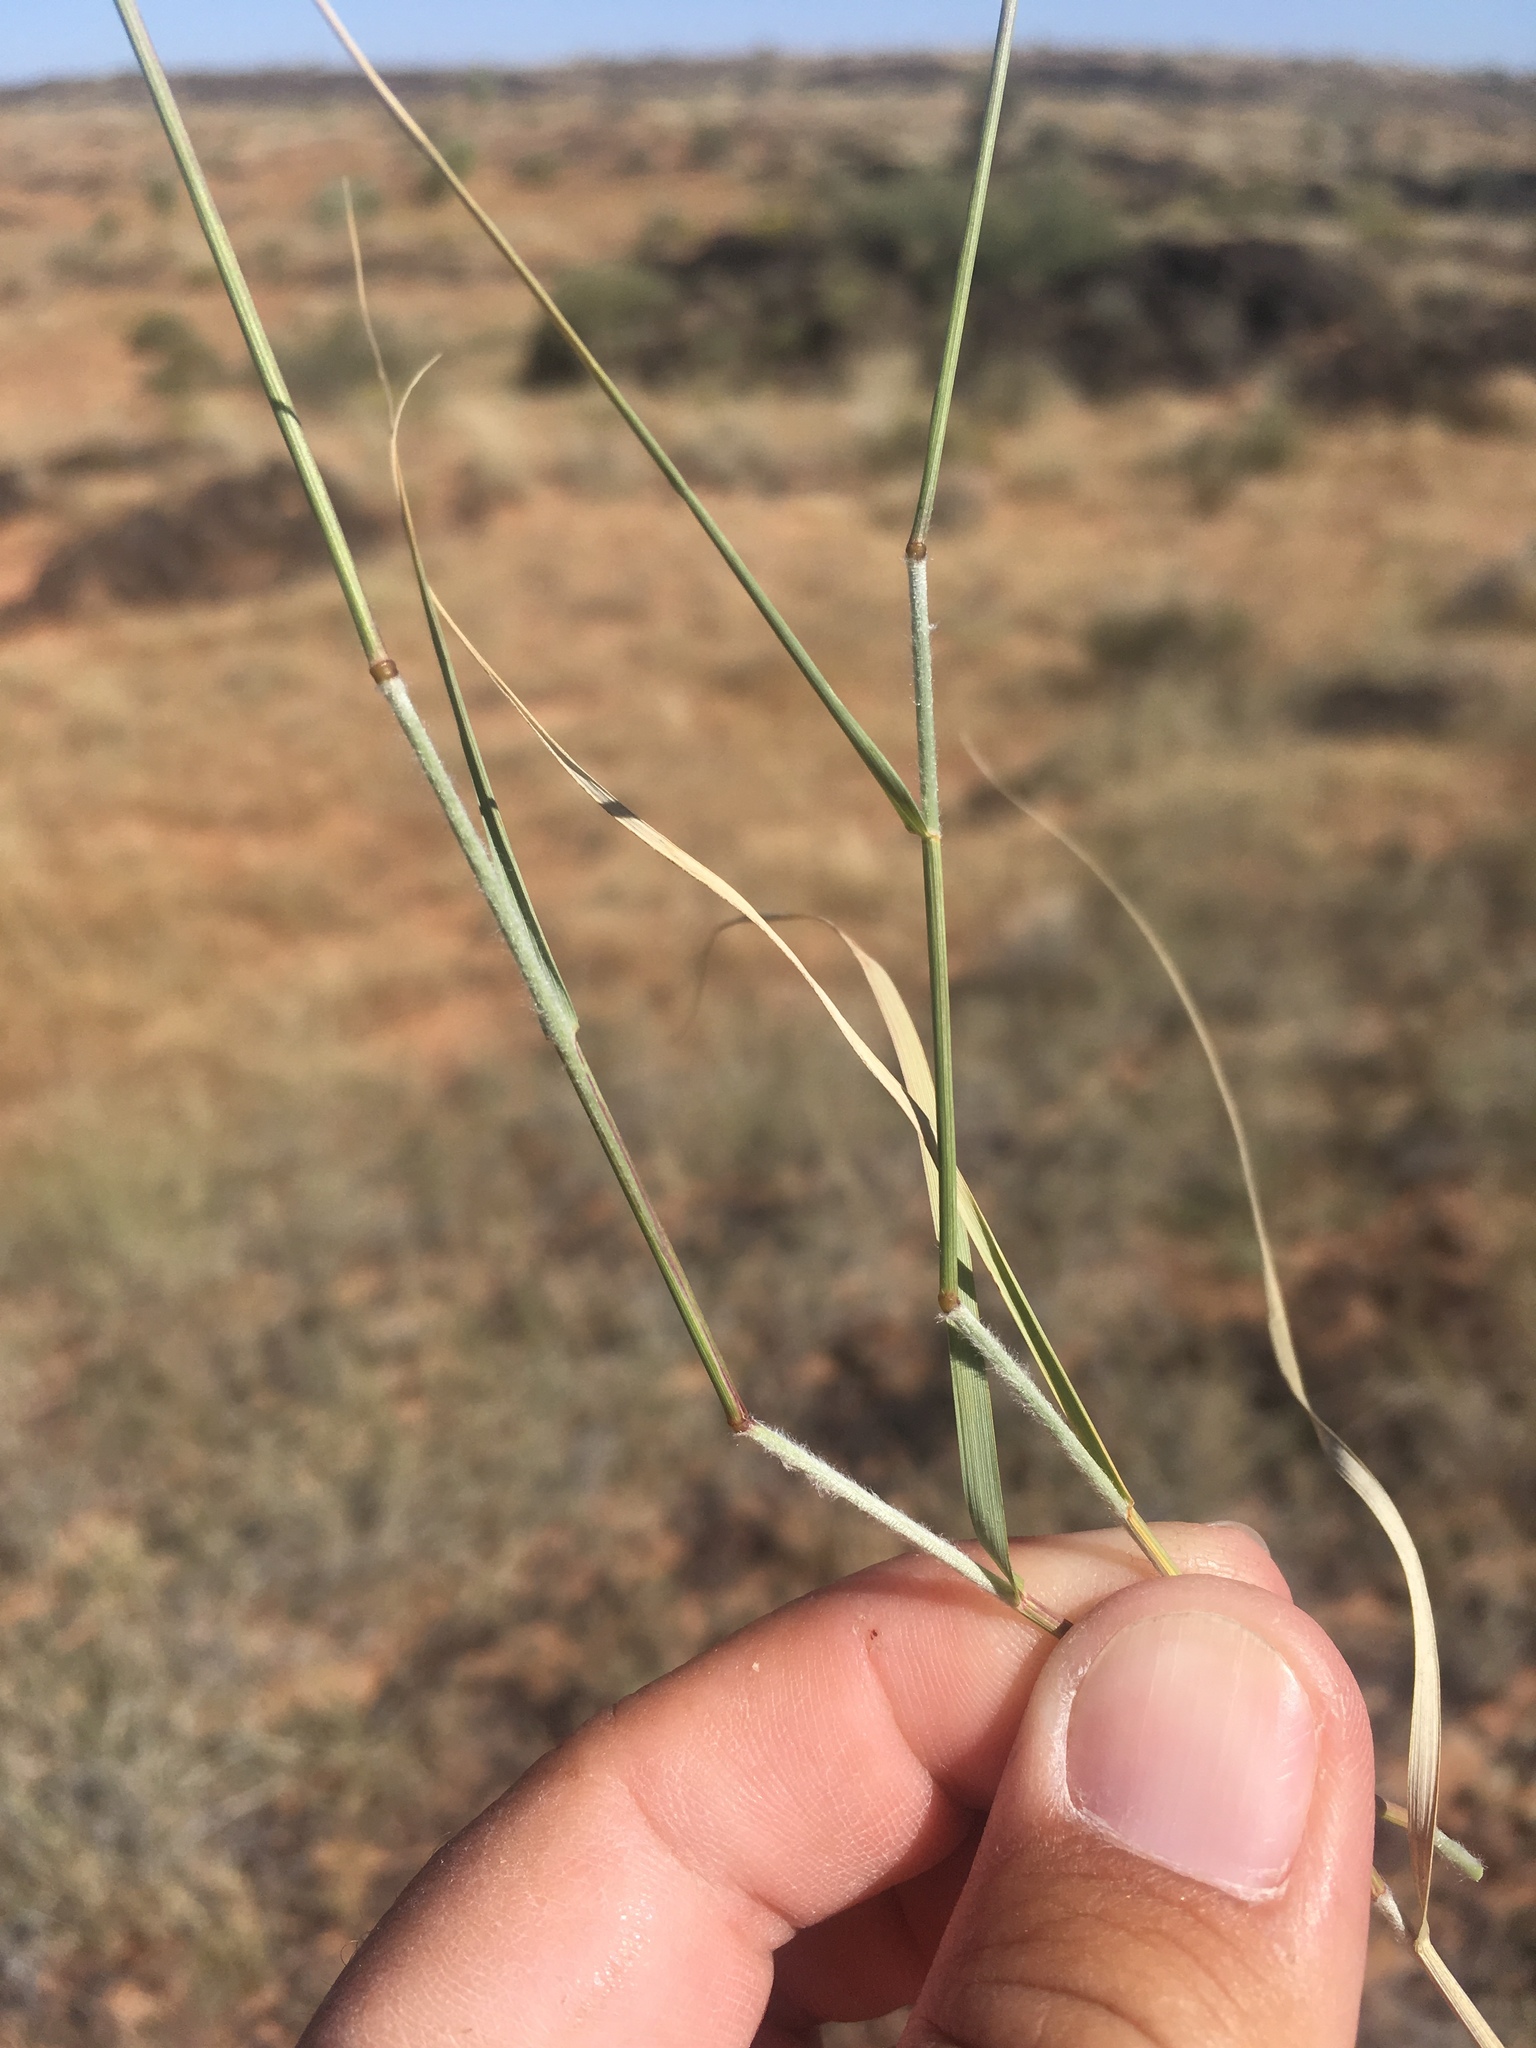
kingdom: Plantae
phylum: Tracheophyta
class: Liliopsida
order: Poales
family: Poaceae
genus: Bouteloua
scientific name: Bouteloua eriopoda
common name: Woolly foot grama
